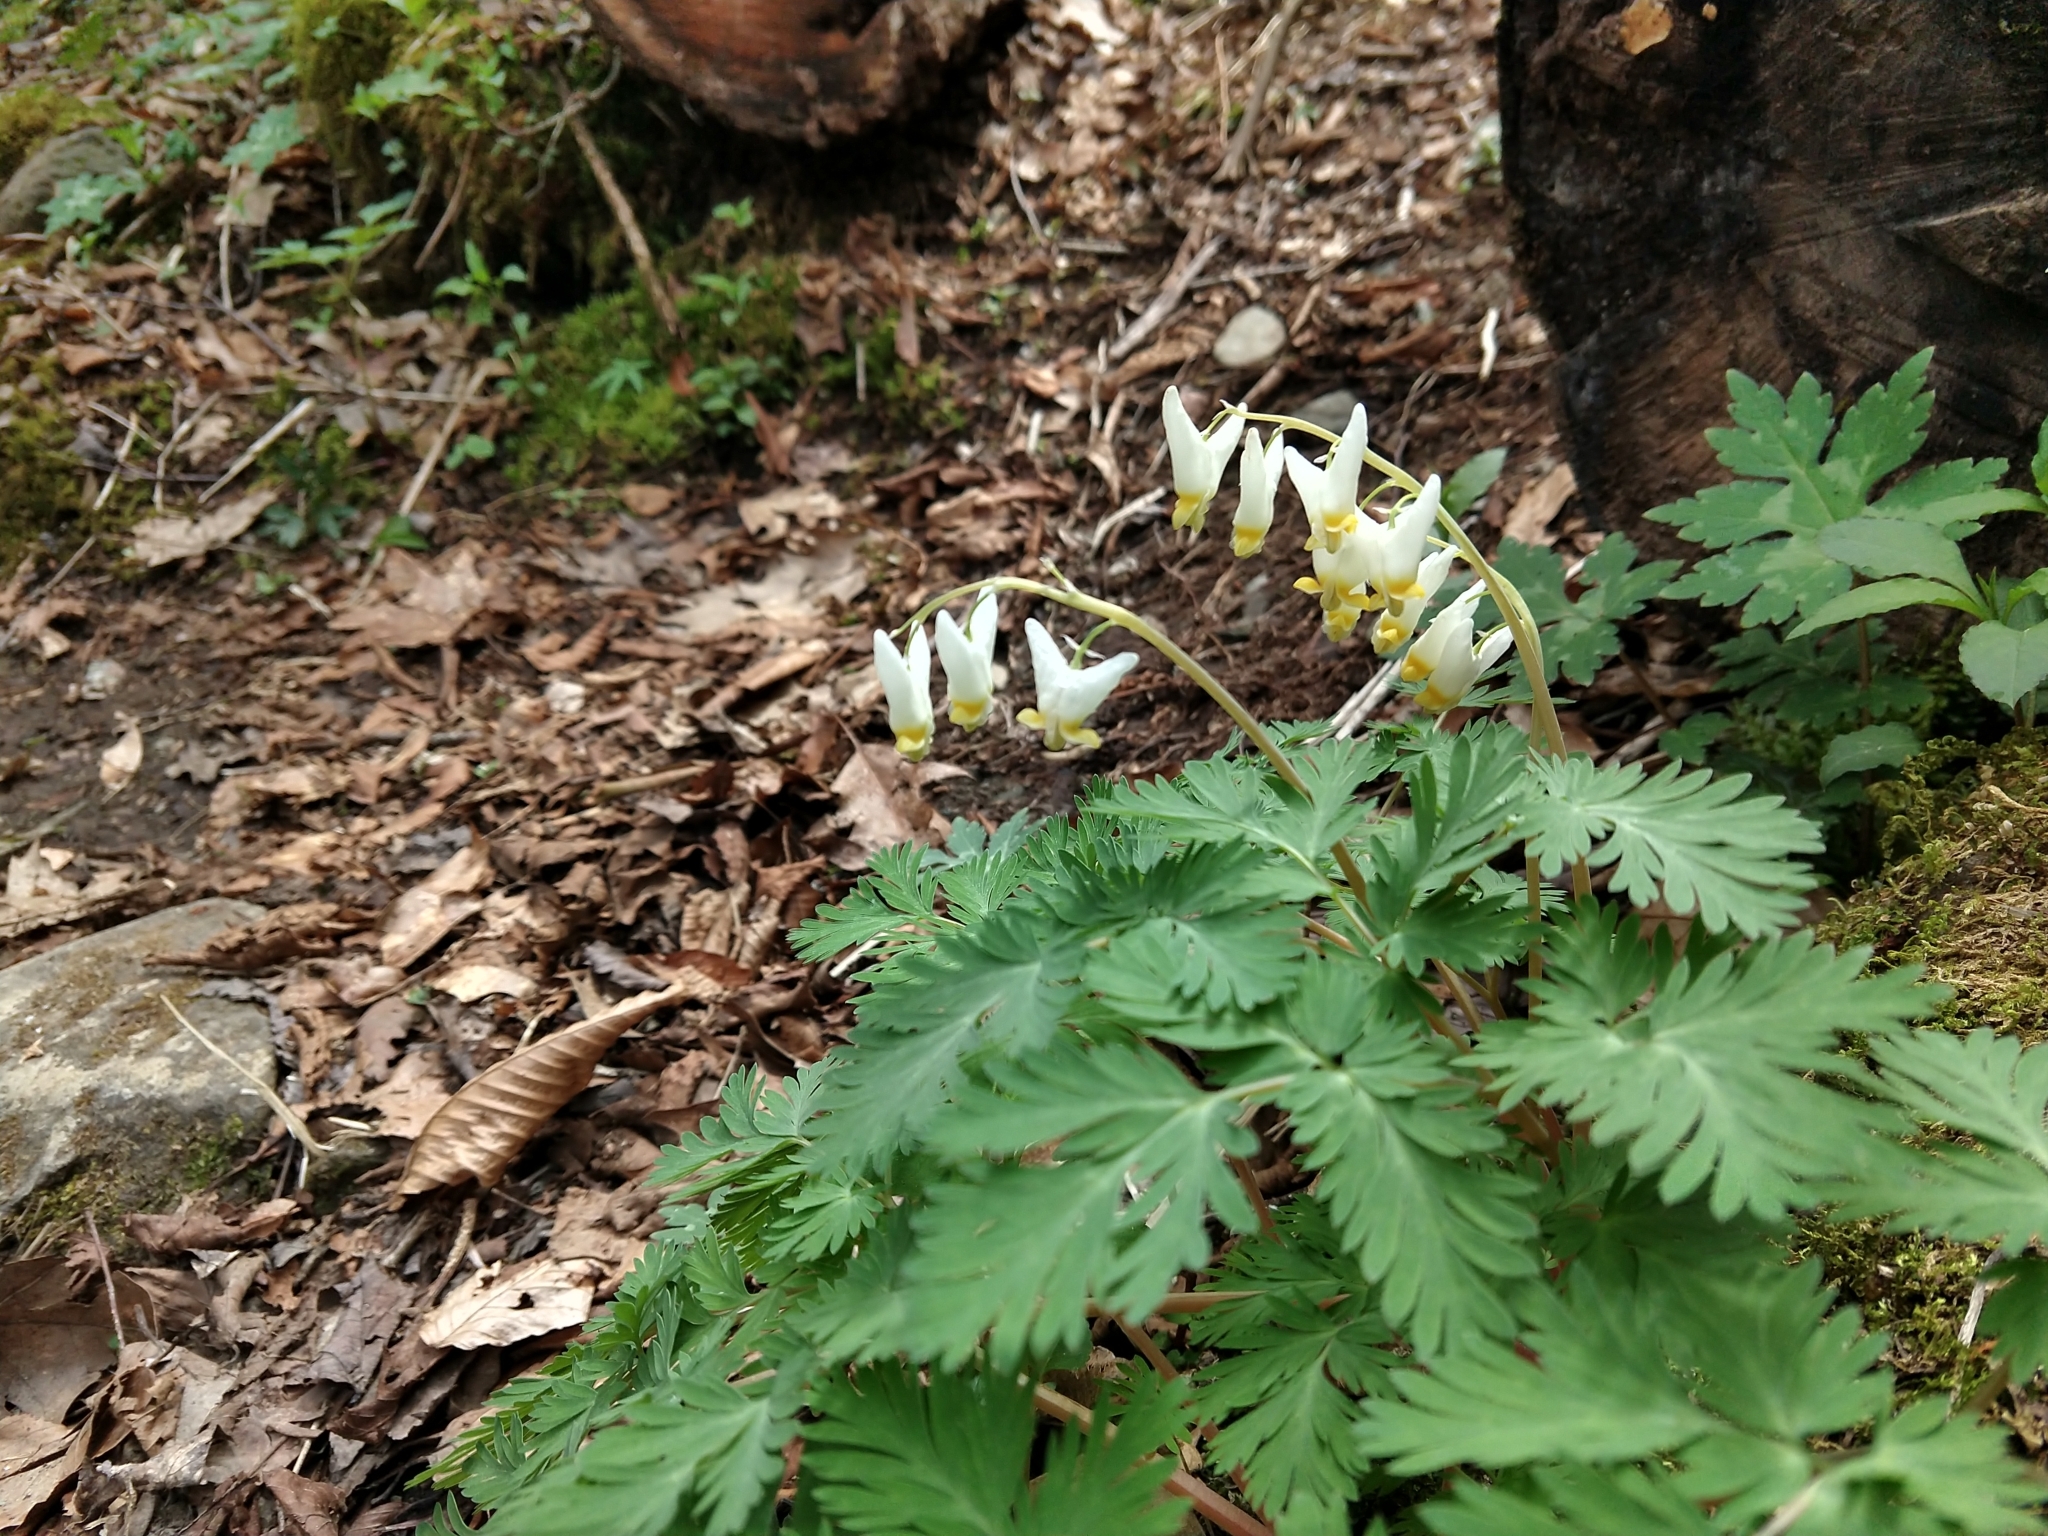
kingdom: Plantae
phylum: Tracheophyta
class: Magnoliopsida
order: Ranunculales
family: Papaveraceae
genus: Dicentra
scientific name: Dicentra cucullaria
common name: Dutchman's breeches
